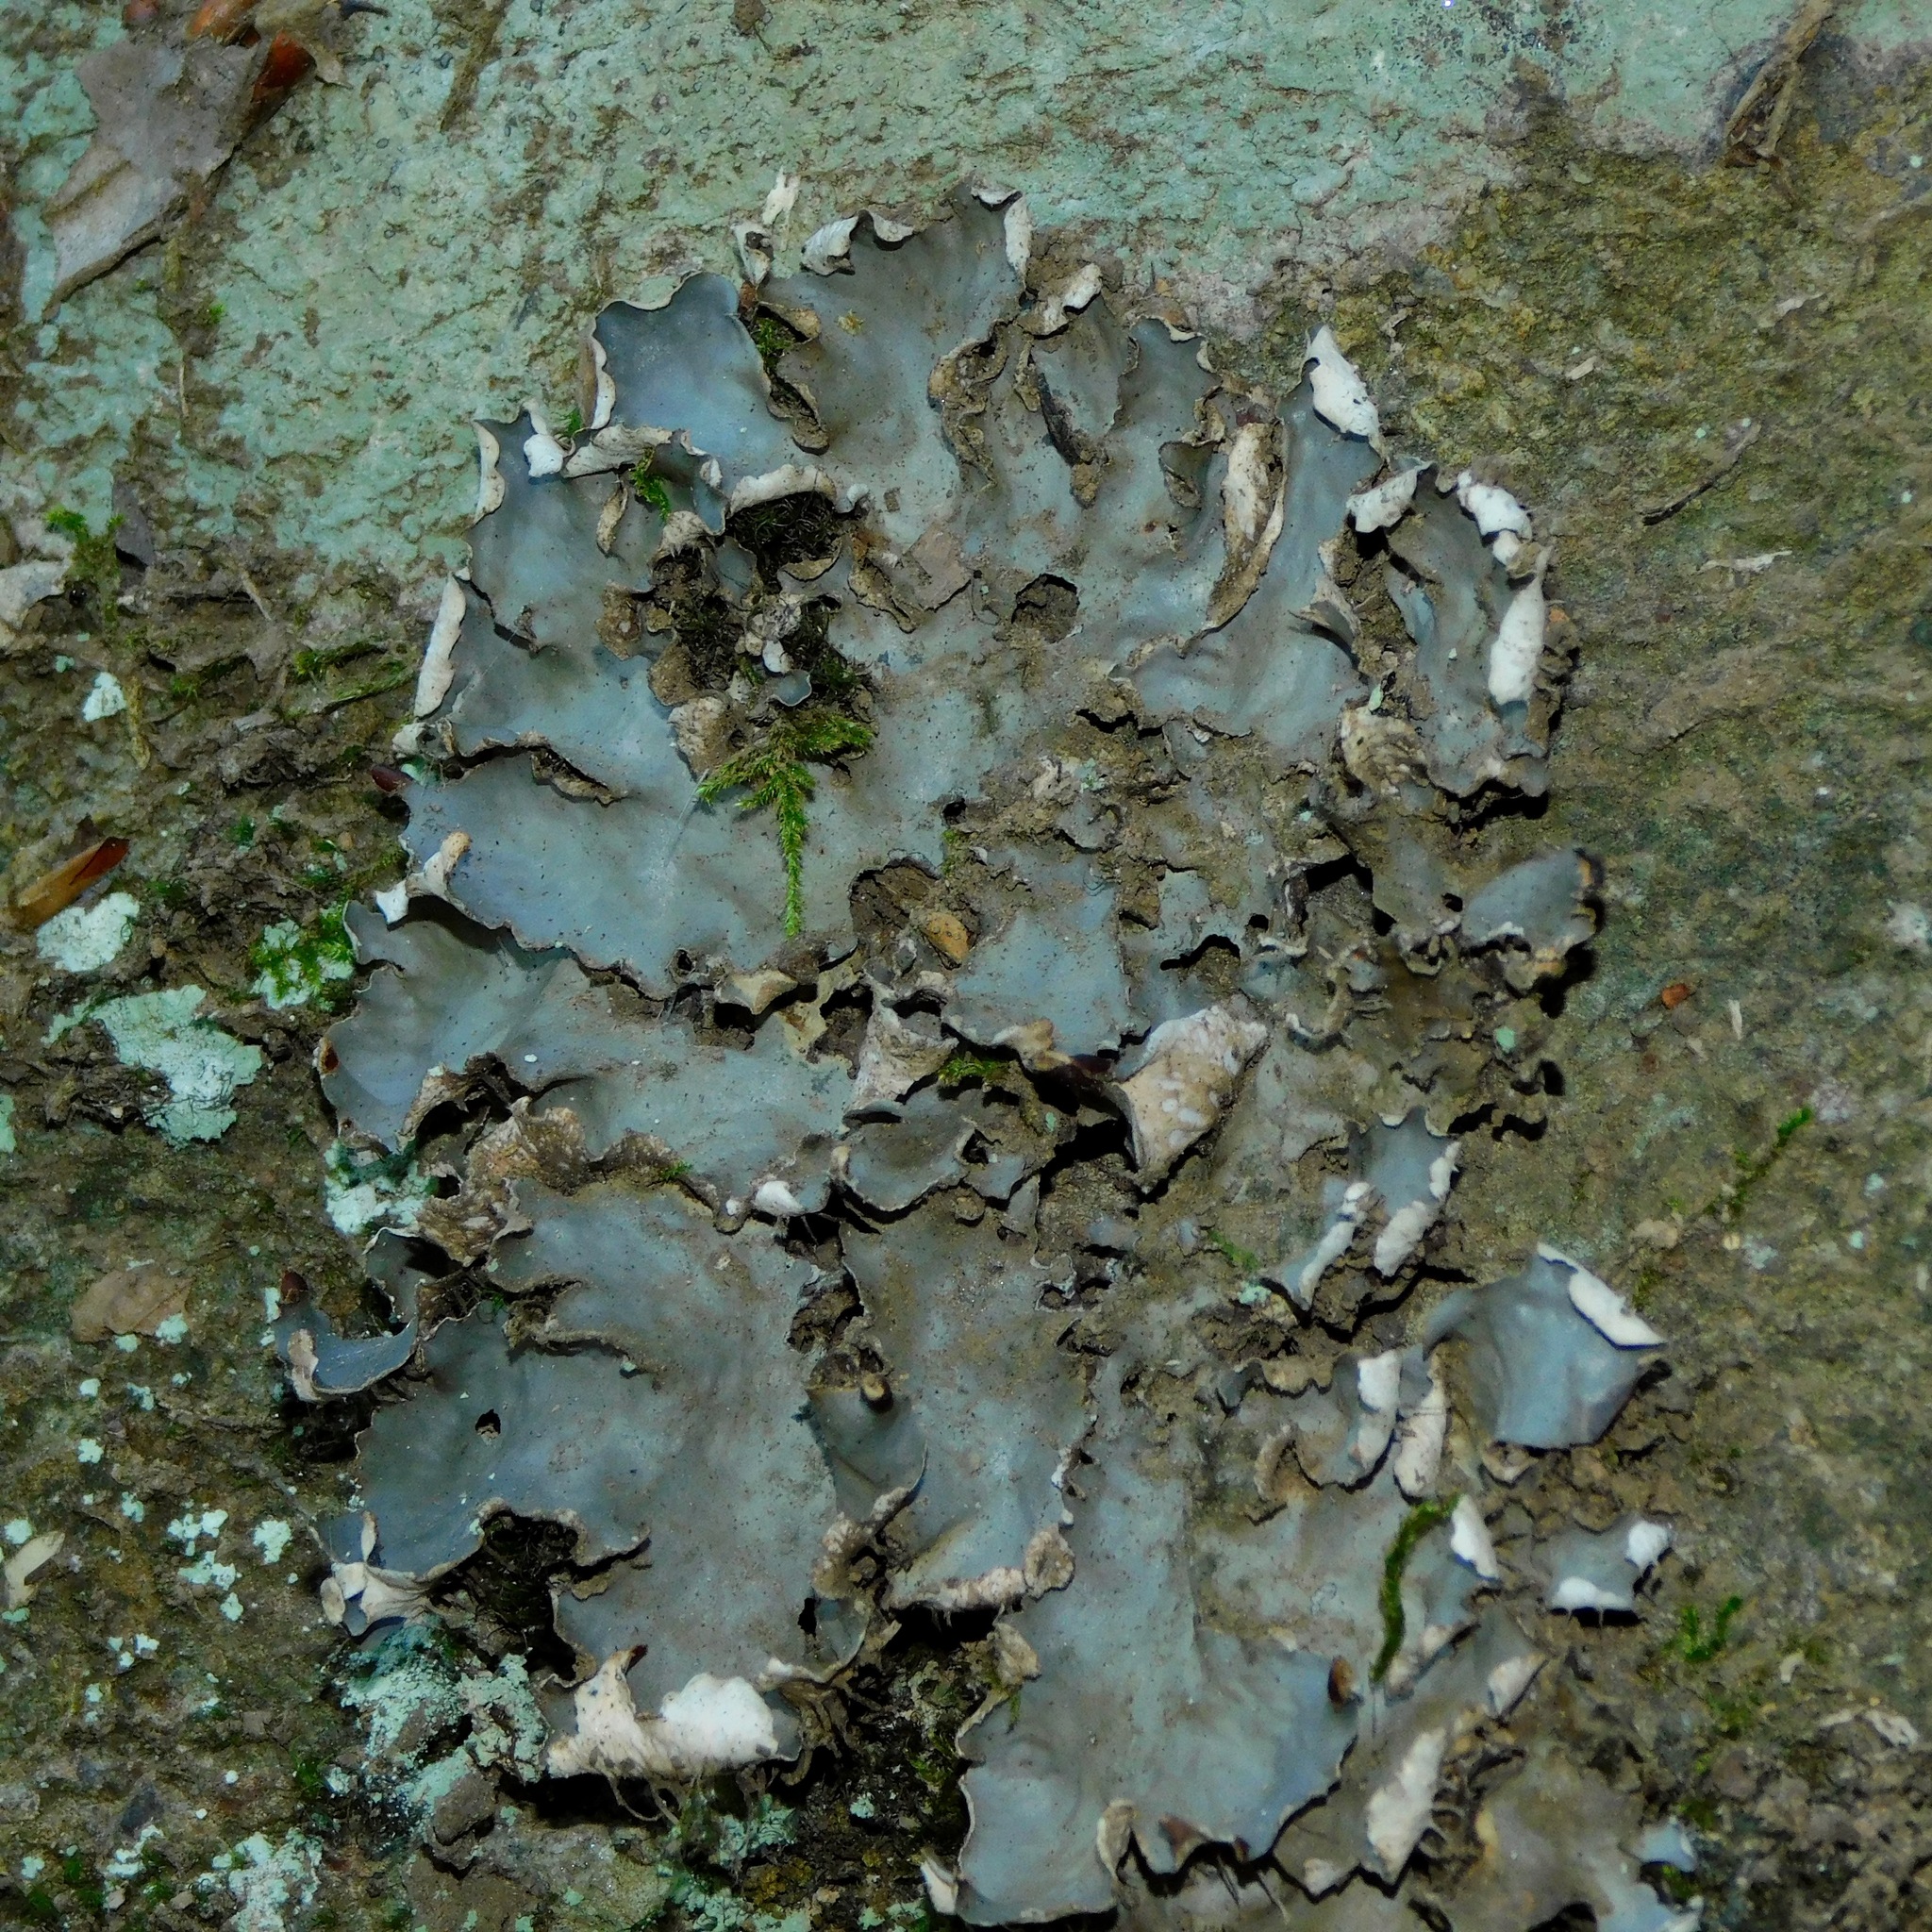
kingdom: Fungi
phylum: Ascomycota
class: Lecanoromycetes
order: Peltigerales
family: Peltigeraceae
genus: Peltigera
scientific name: Peltigera neopolydactyla
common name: Carpet pelt
